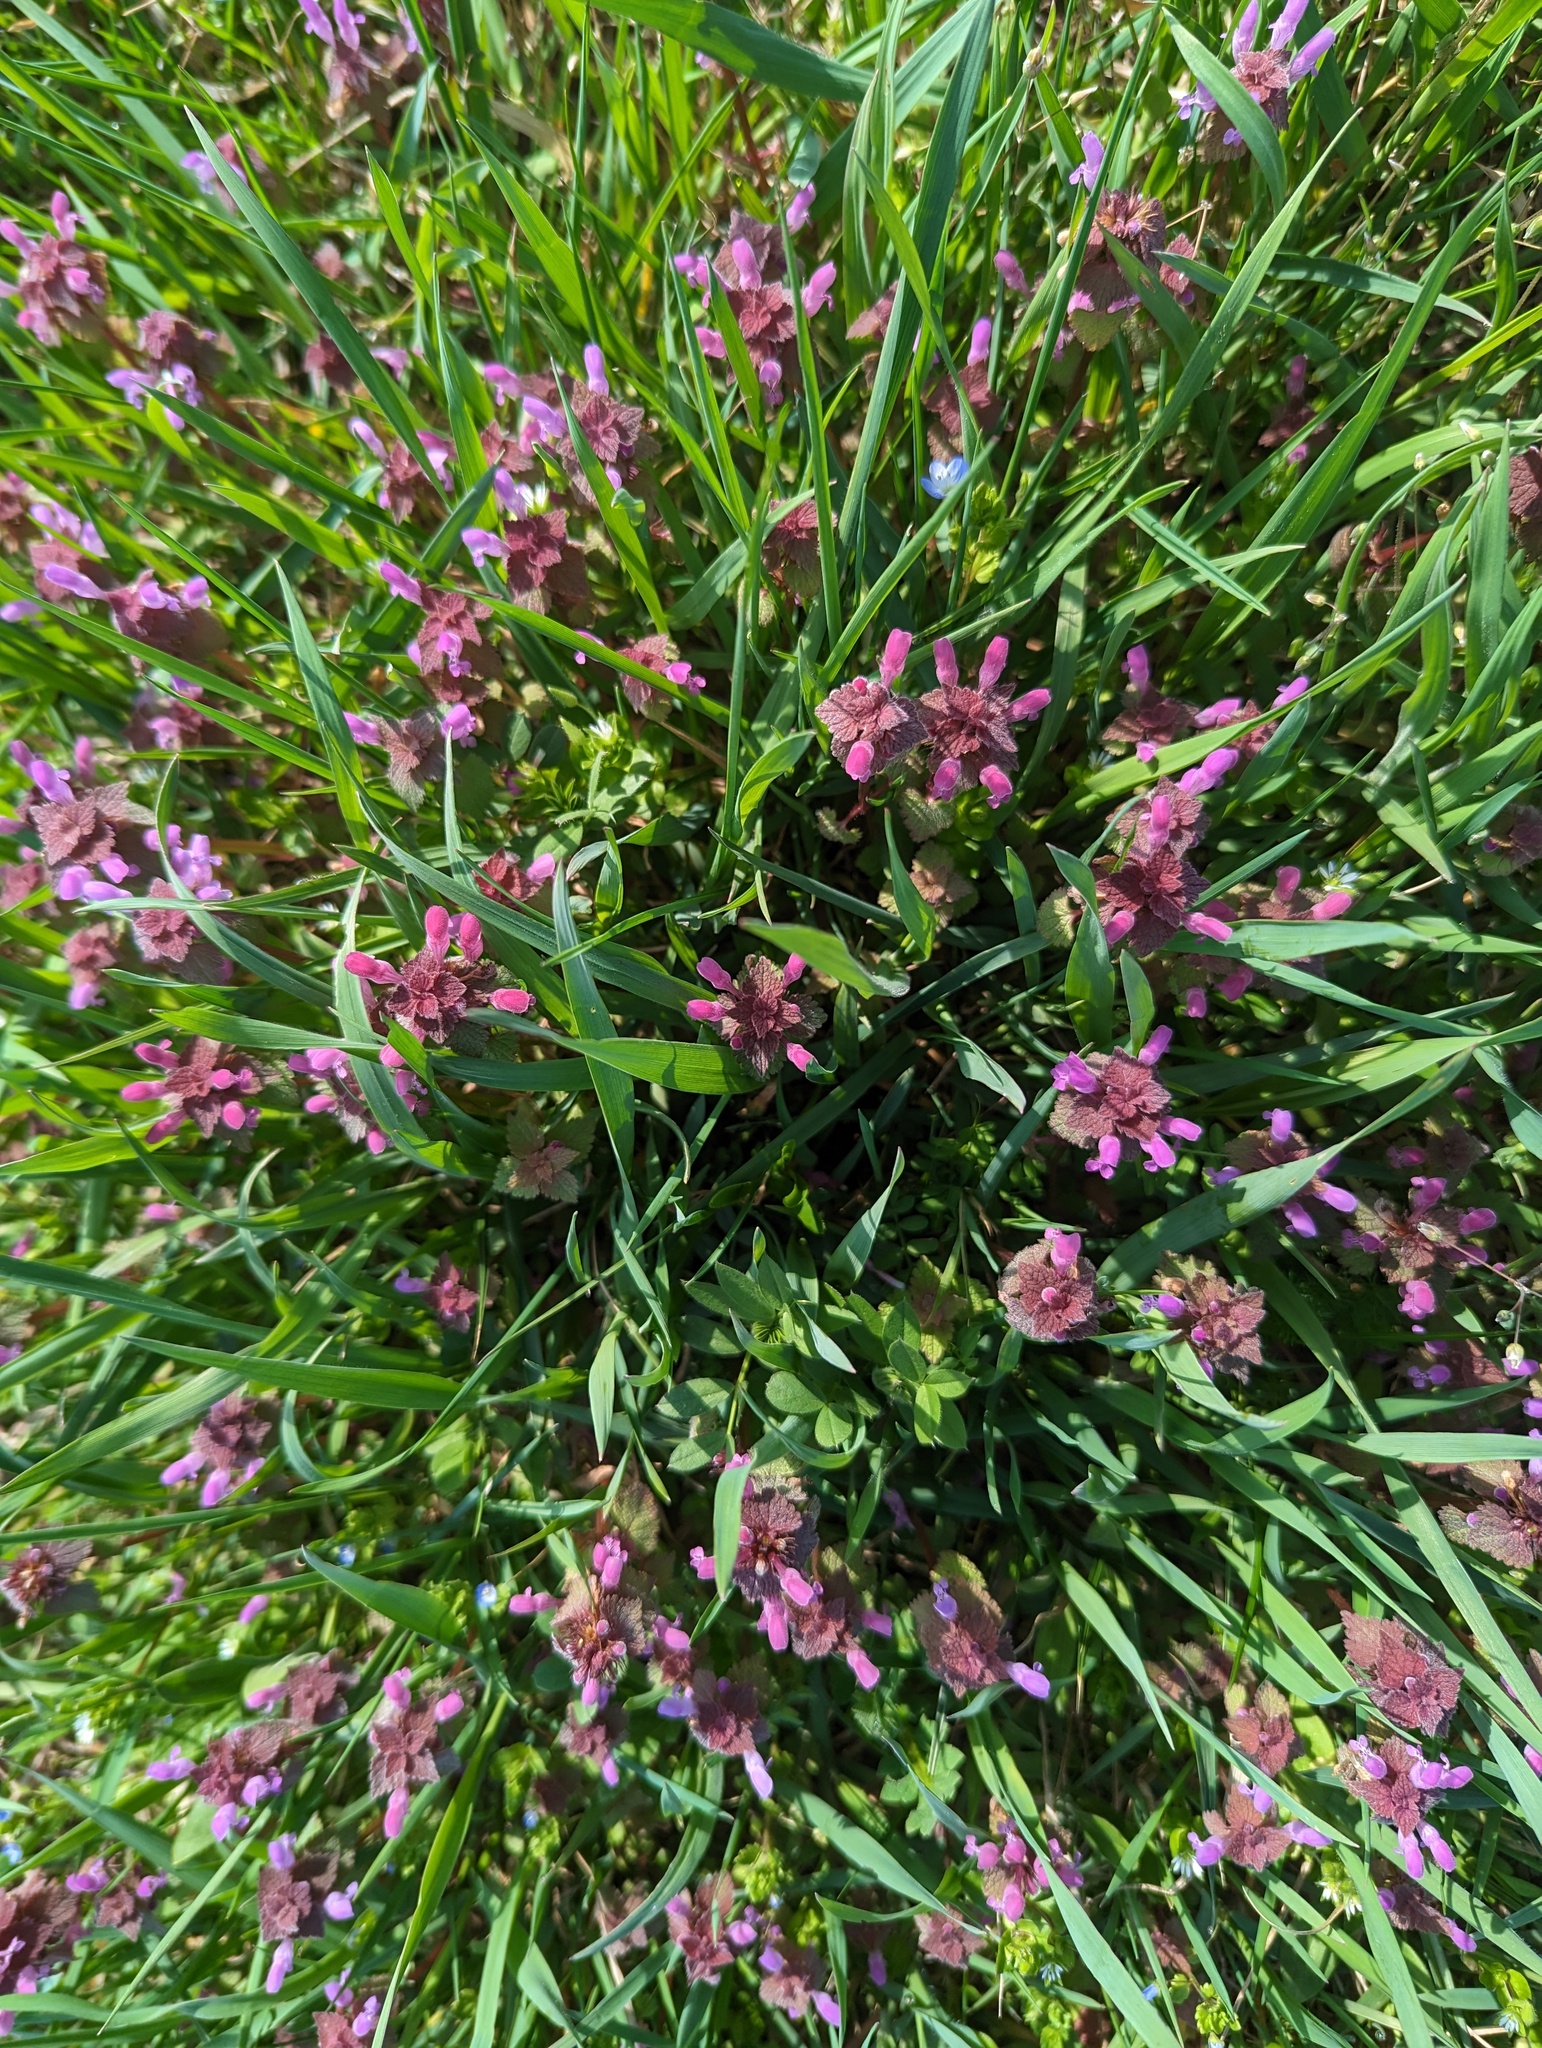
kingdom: Plantae
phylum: Tracheophyta
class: Magnoliopsida
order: Lamiales
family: Lamiaceae
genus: Lamium
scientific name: Lamium purpureum
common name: Red dead-nettle
